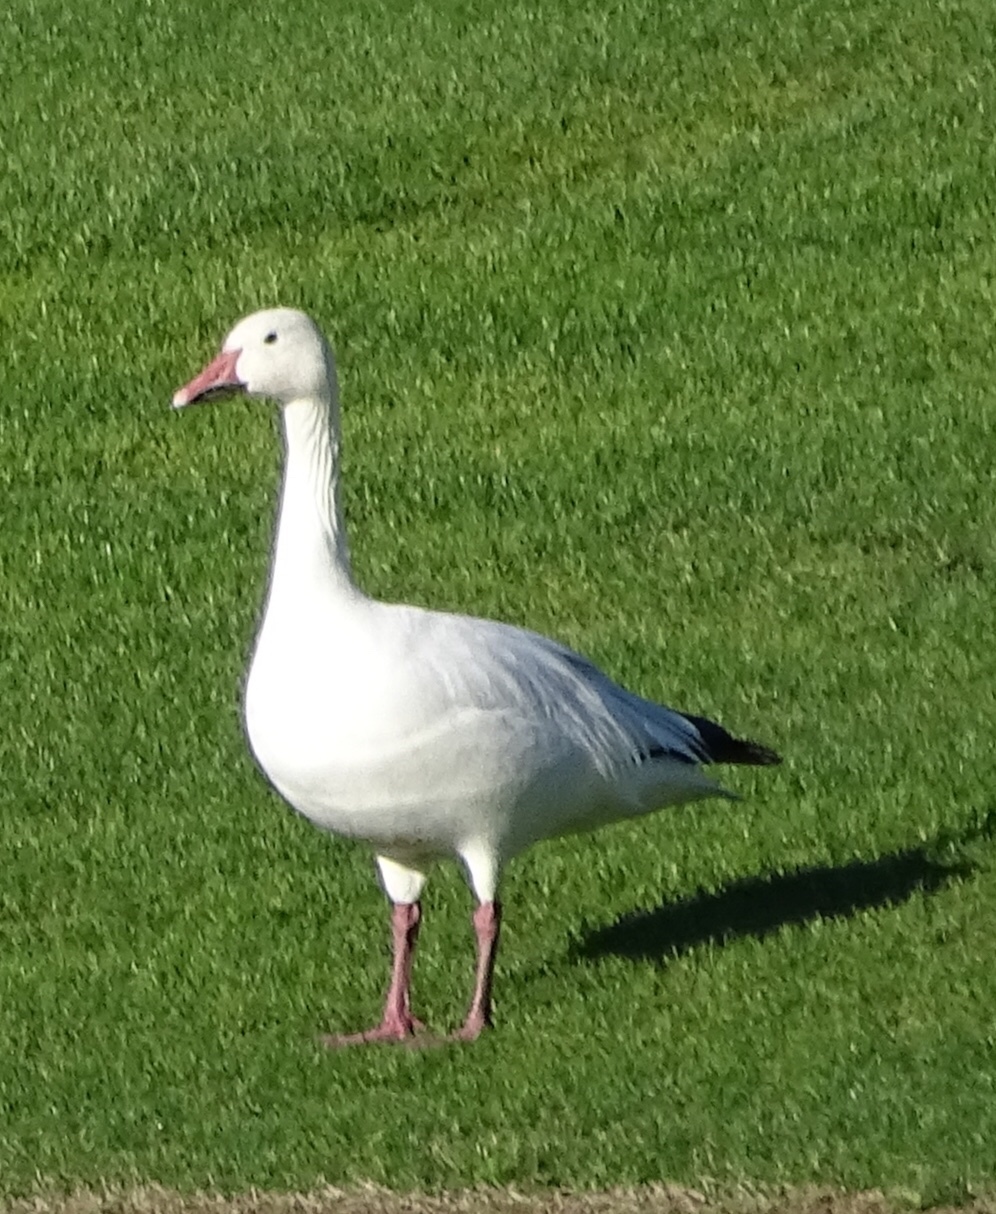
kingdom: Animalia
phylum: Chordata
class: Aves
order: Anseriformes
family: Anatidae
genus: Anser
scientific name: Anser caerulescens
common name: Snow goose
